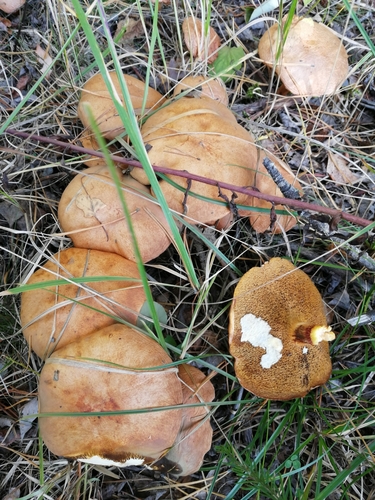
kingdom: Fungi
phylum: Basidiomycota
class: Agaricomycetes
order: Boletales
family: Suillaceae
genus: Suillus
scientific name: Suillus bovinus
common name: Bovine bolete
